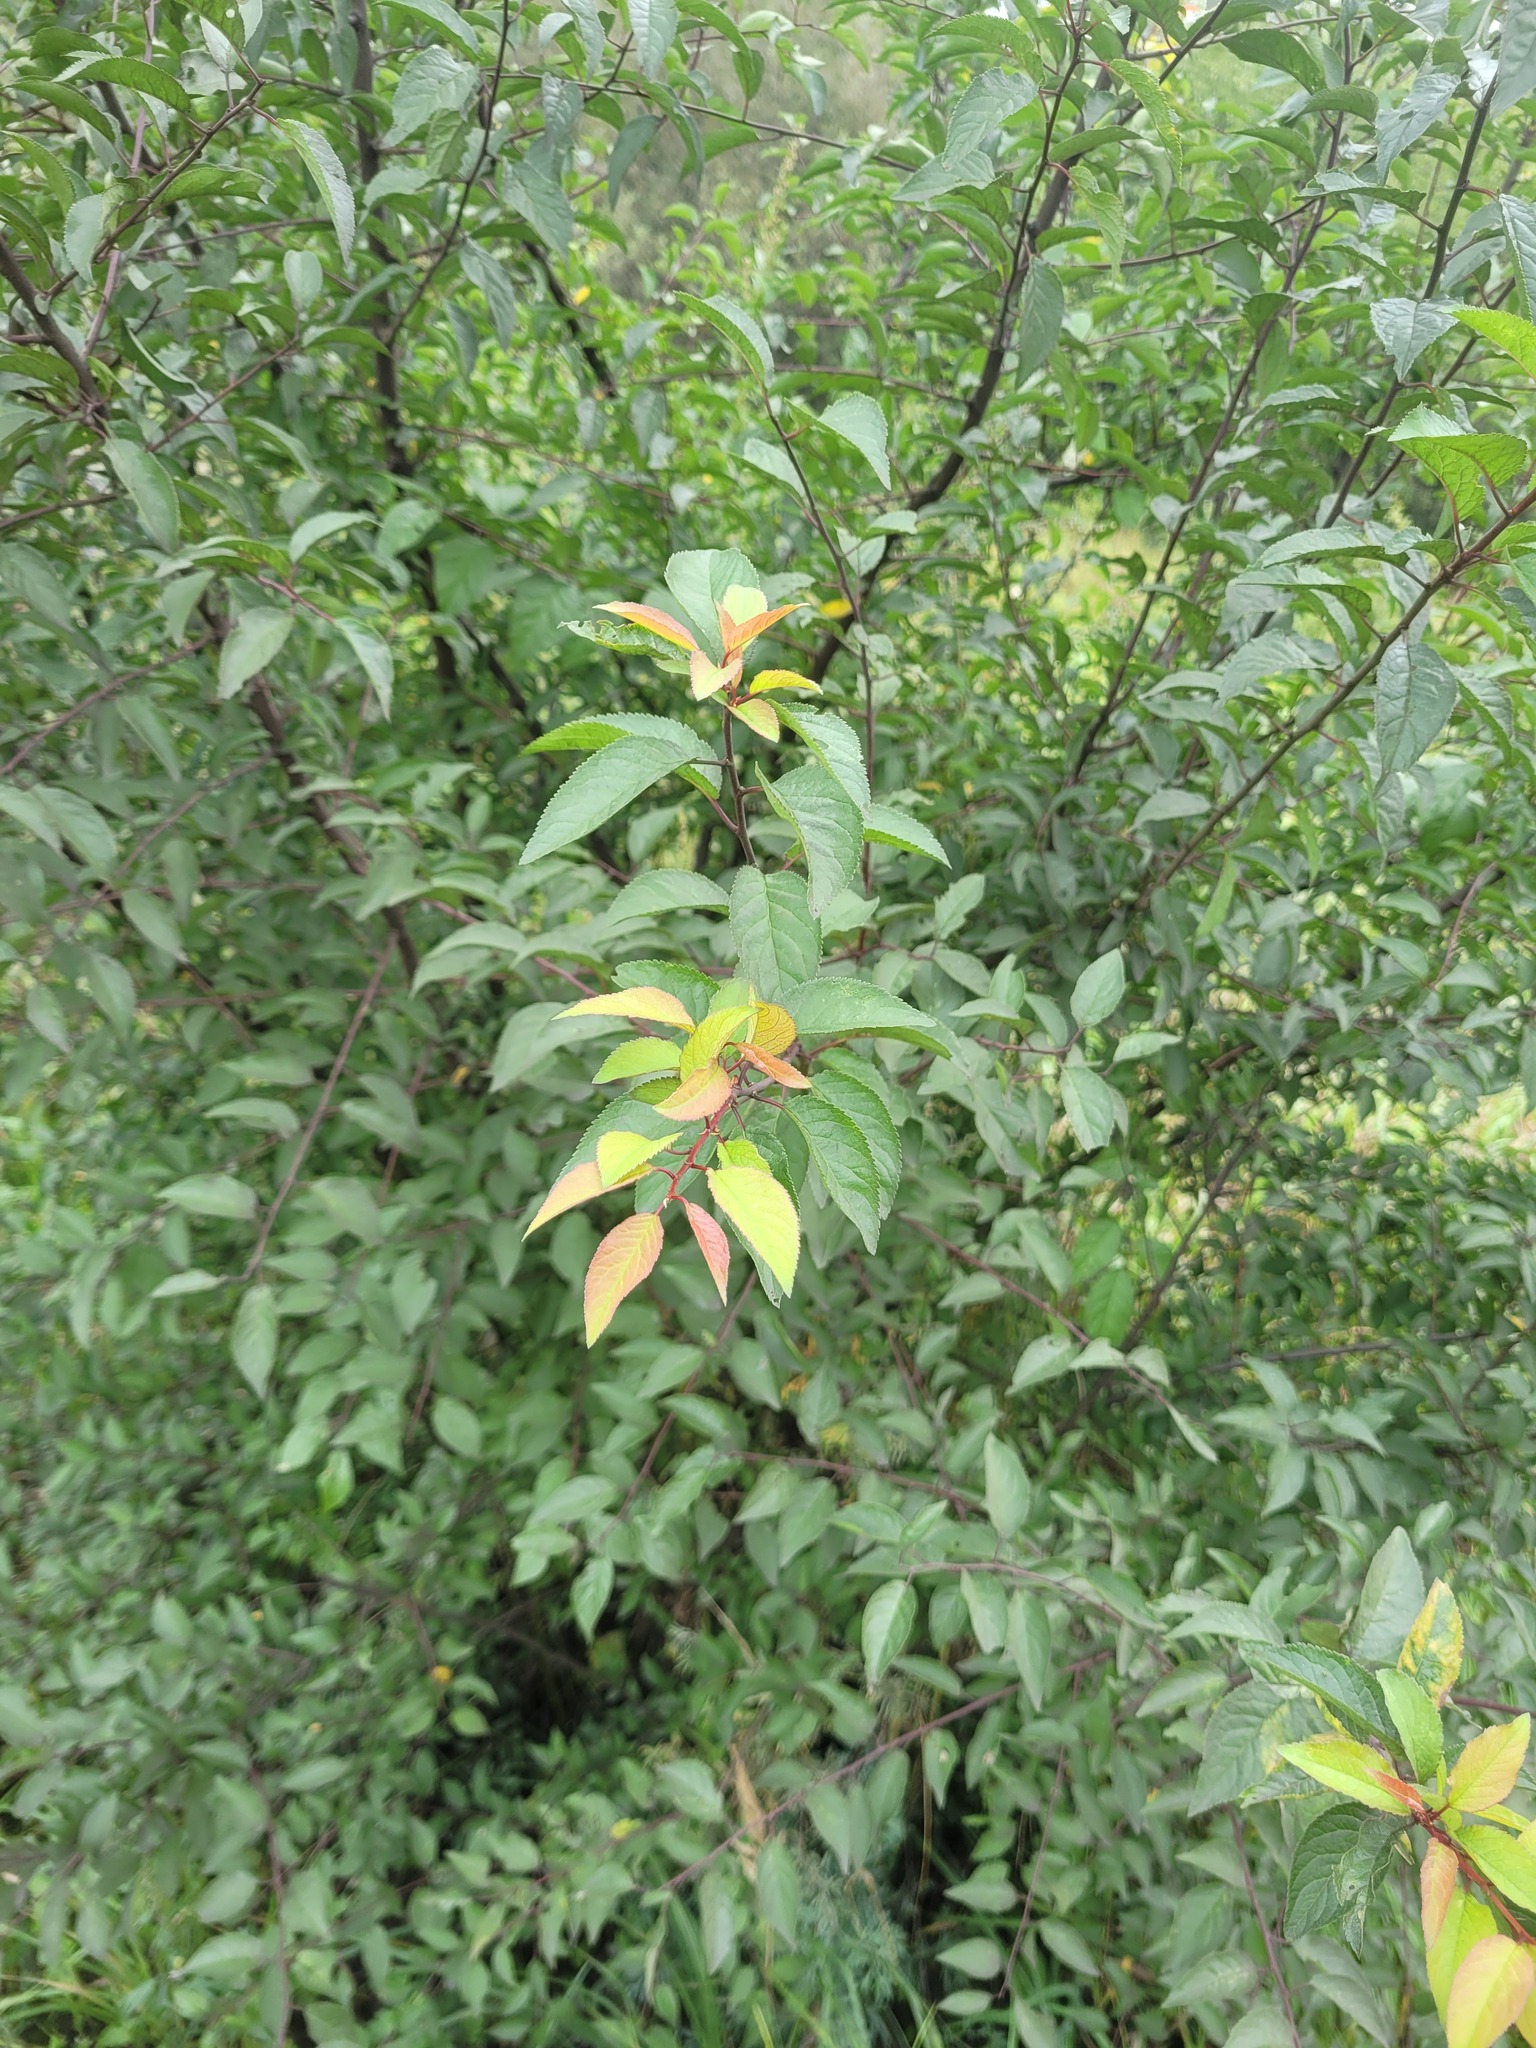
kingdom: Plantae
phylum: Tracheophyta
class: Magnoliopsida
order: Rosales
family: Rosaceae
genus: Prunus
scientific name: Prunus cerasifera
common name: Cherry plum
